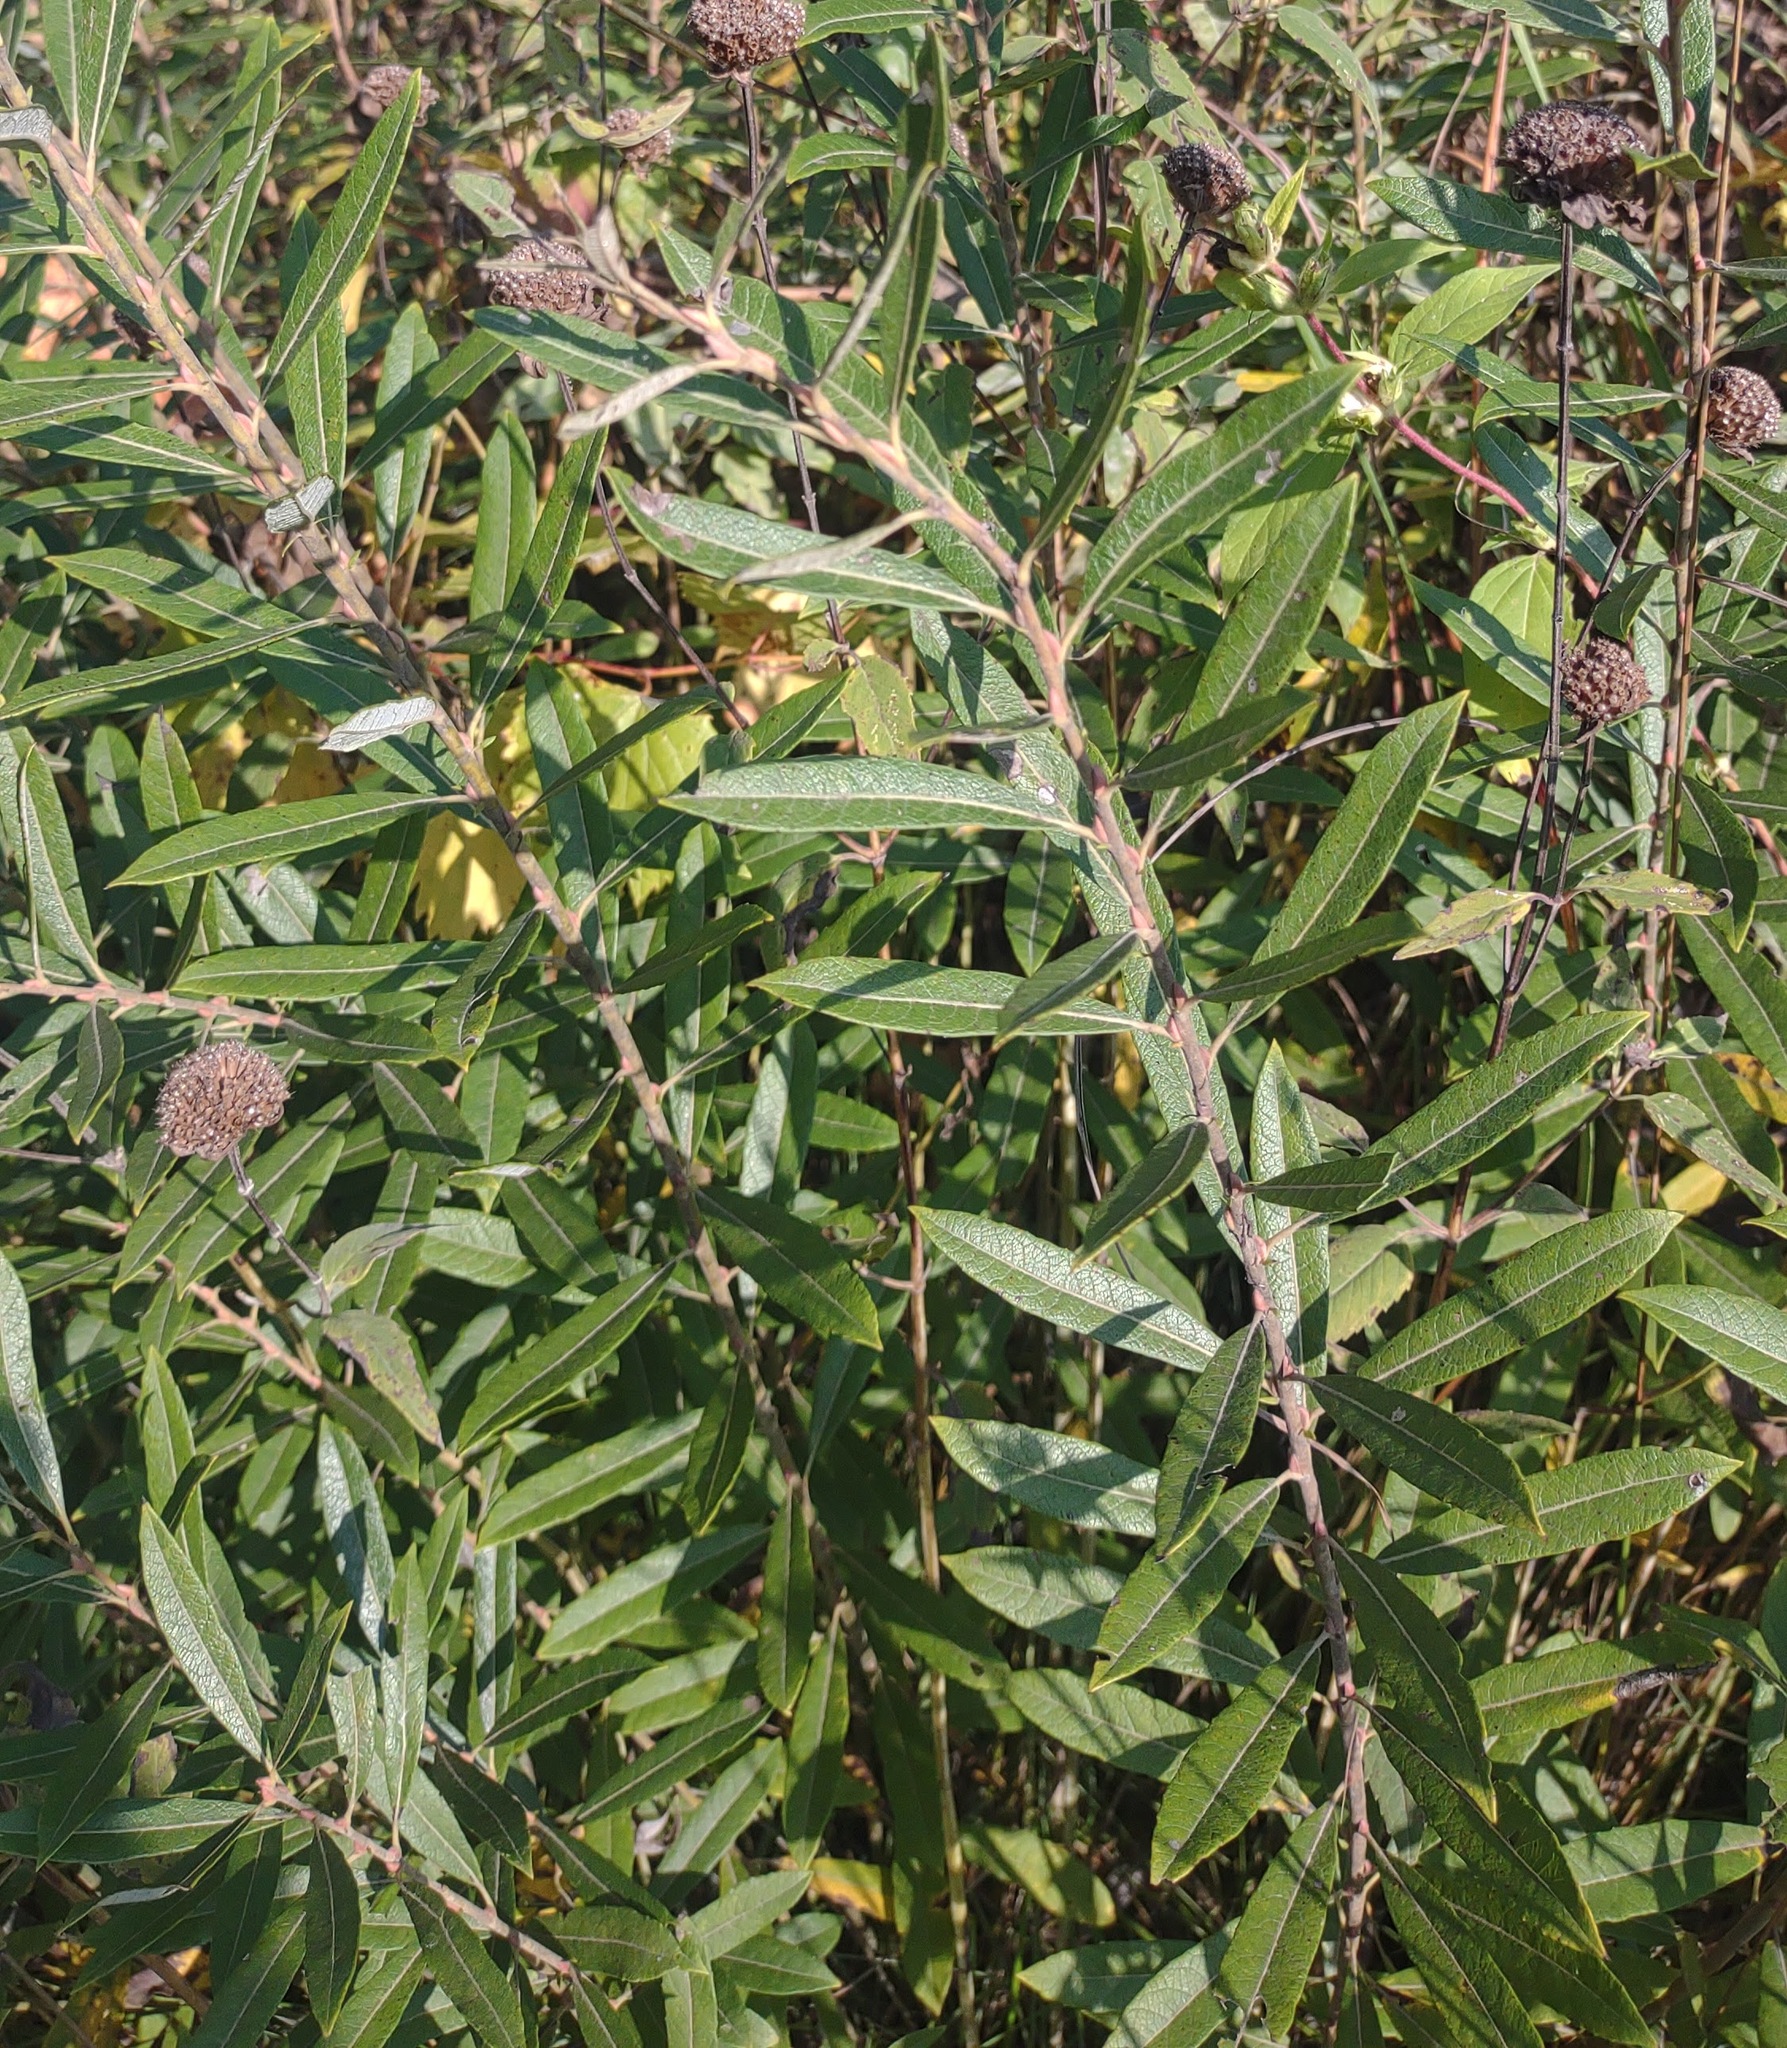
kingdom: Plantae
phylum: Tracheophyta
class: Magnoliopsida
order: Malpighiales
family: Salicaceae
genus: Salix
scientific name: Salix humilis
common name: Prairie willow
